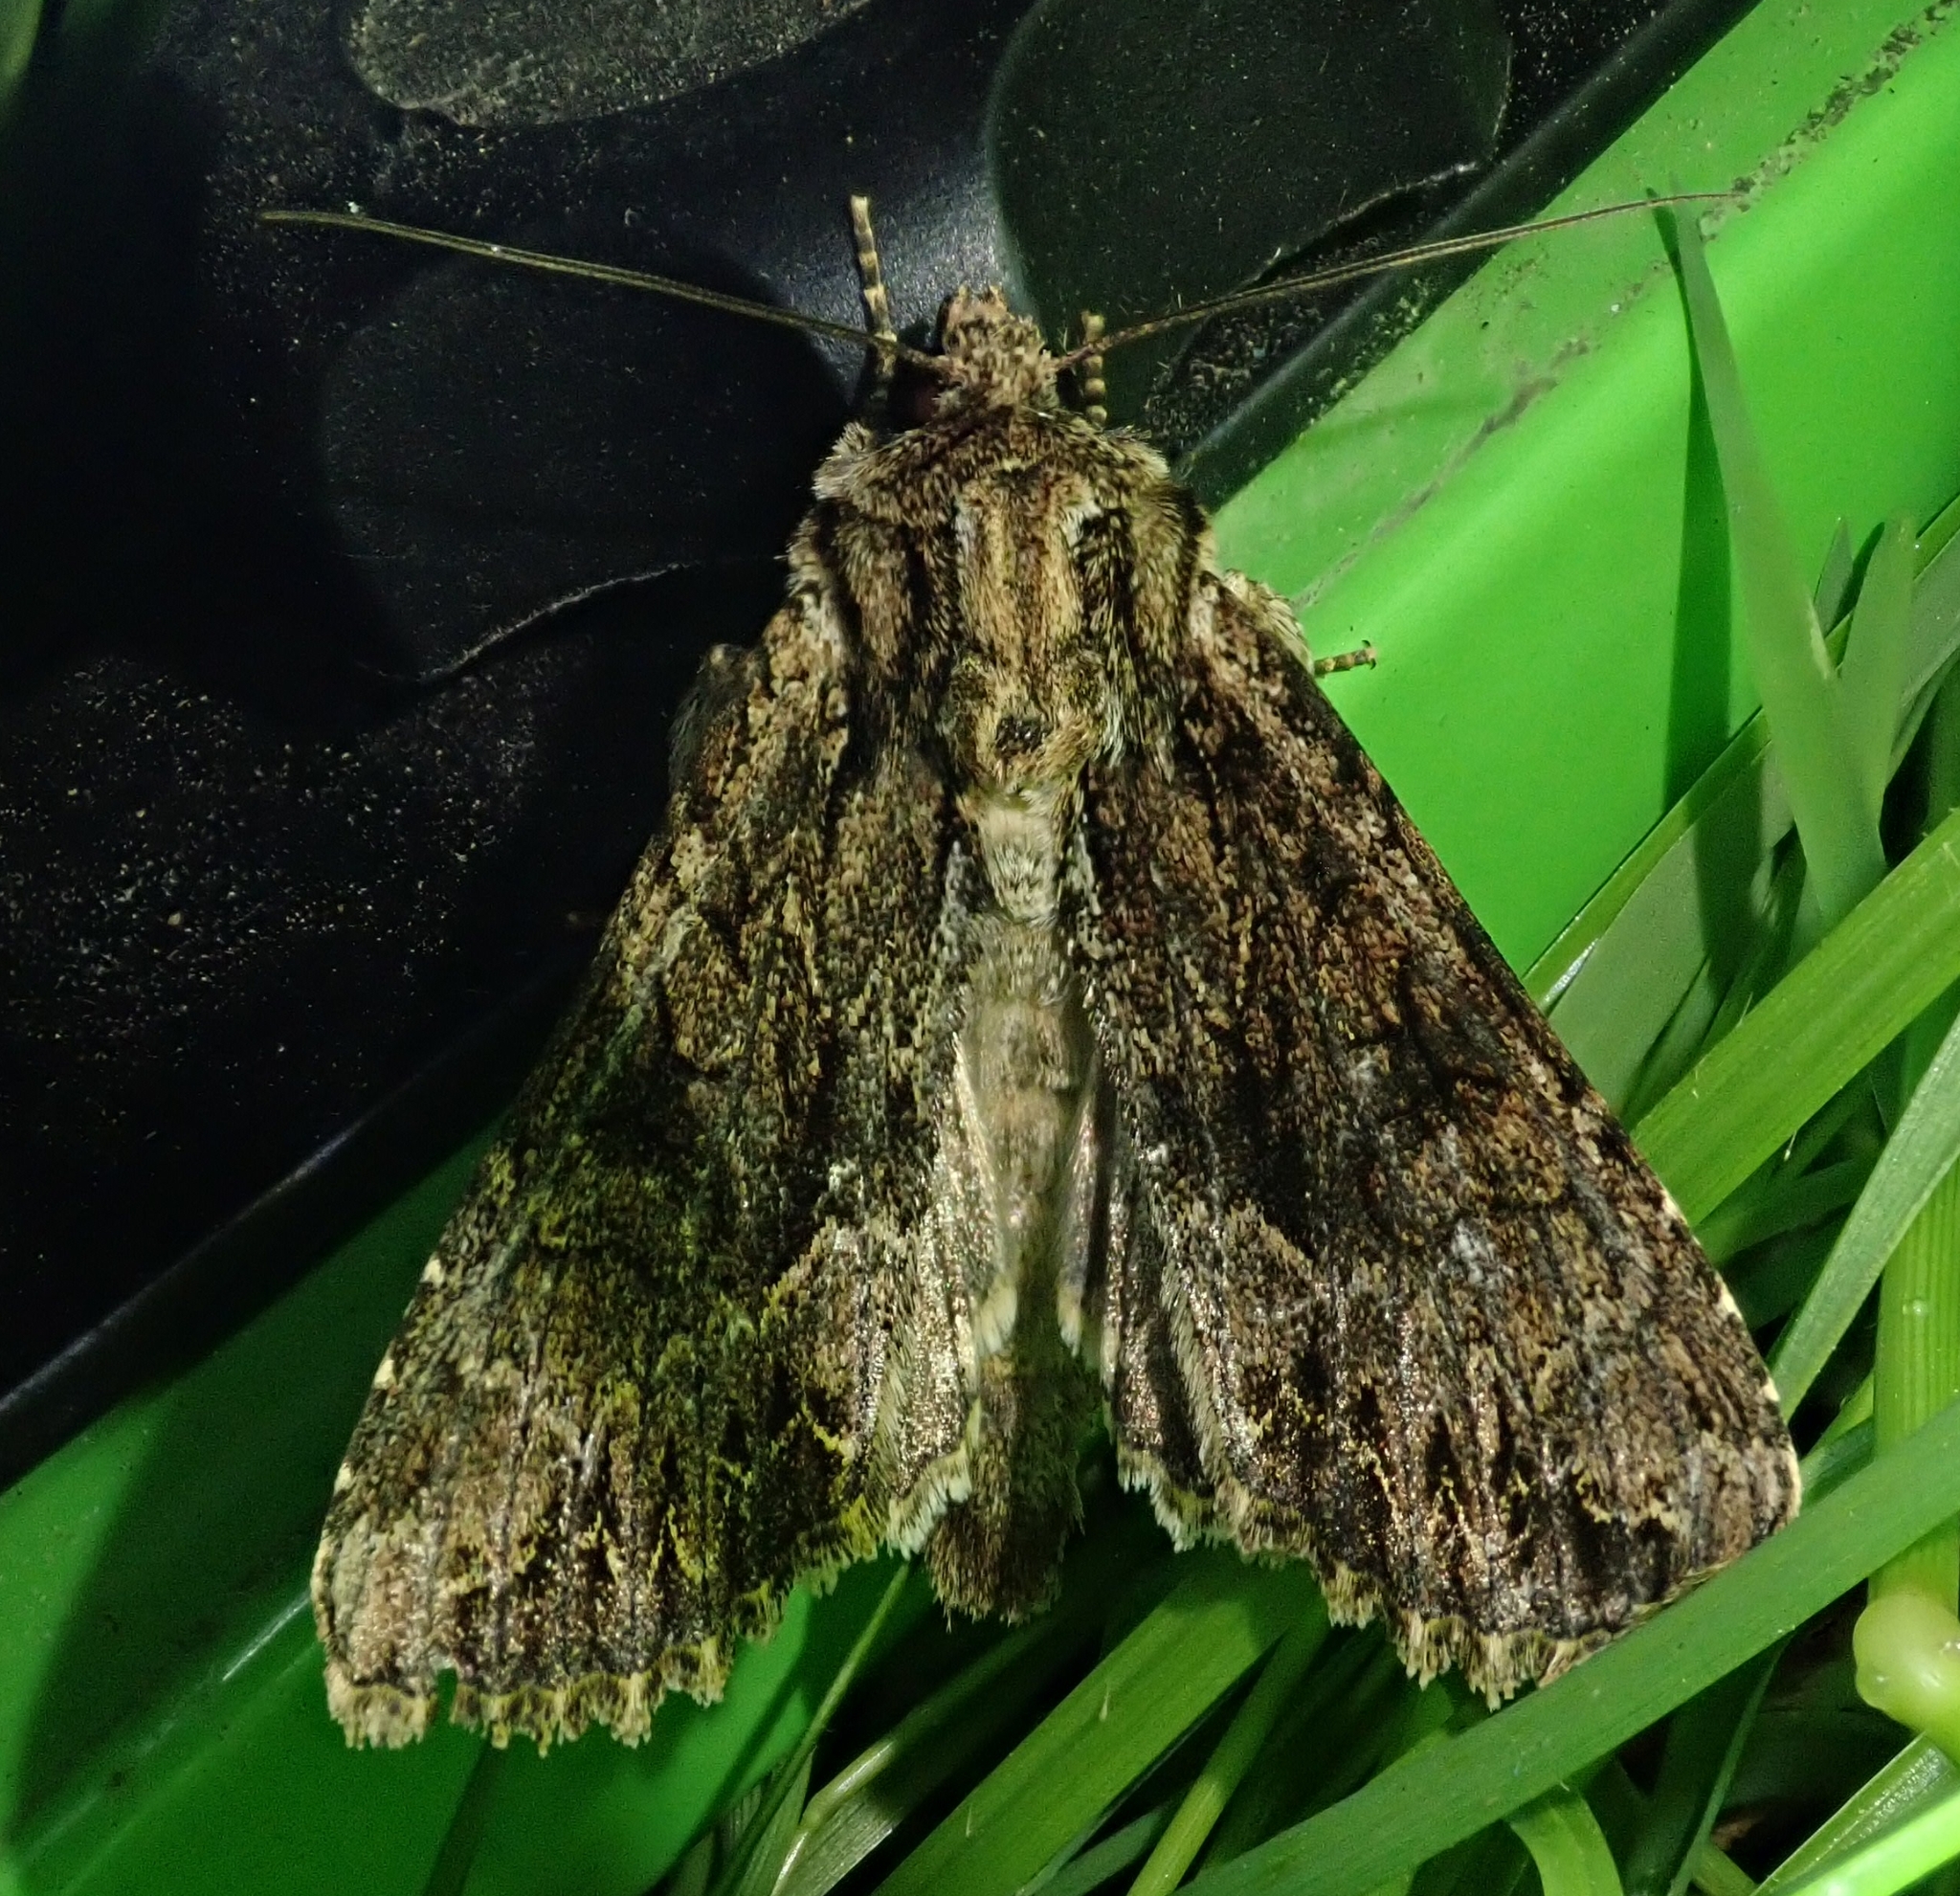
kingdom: Animalia
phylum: Arthropoda
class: Insecta
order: Lepidoptera
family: Noctuidae
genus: Apamea
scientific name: Apamea monoglypha
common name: Dark arches
